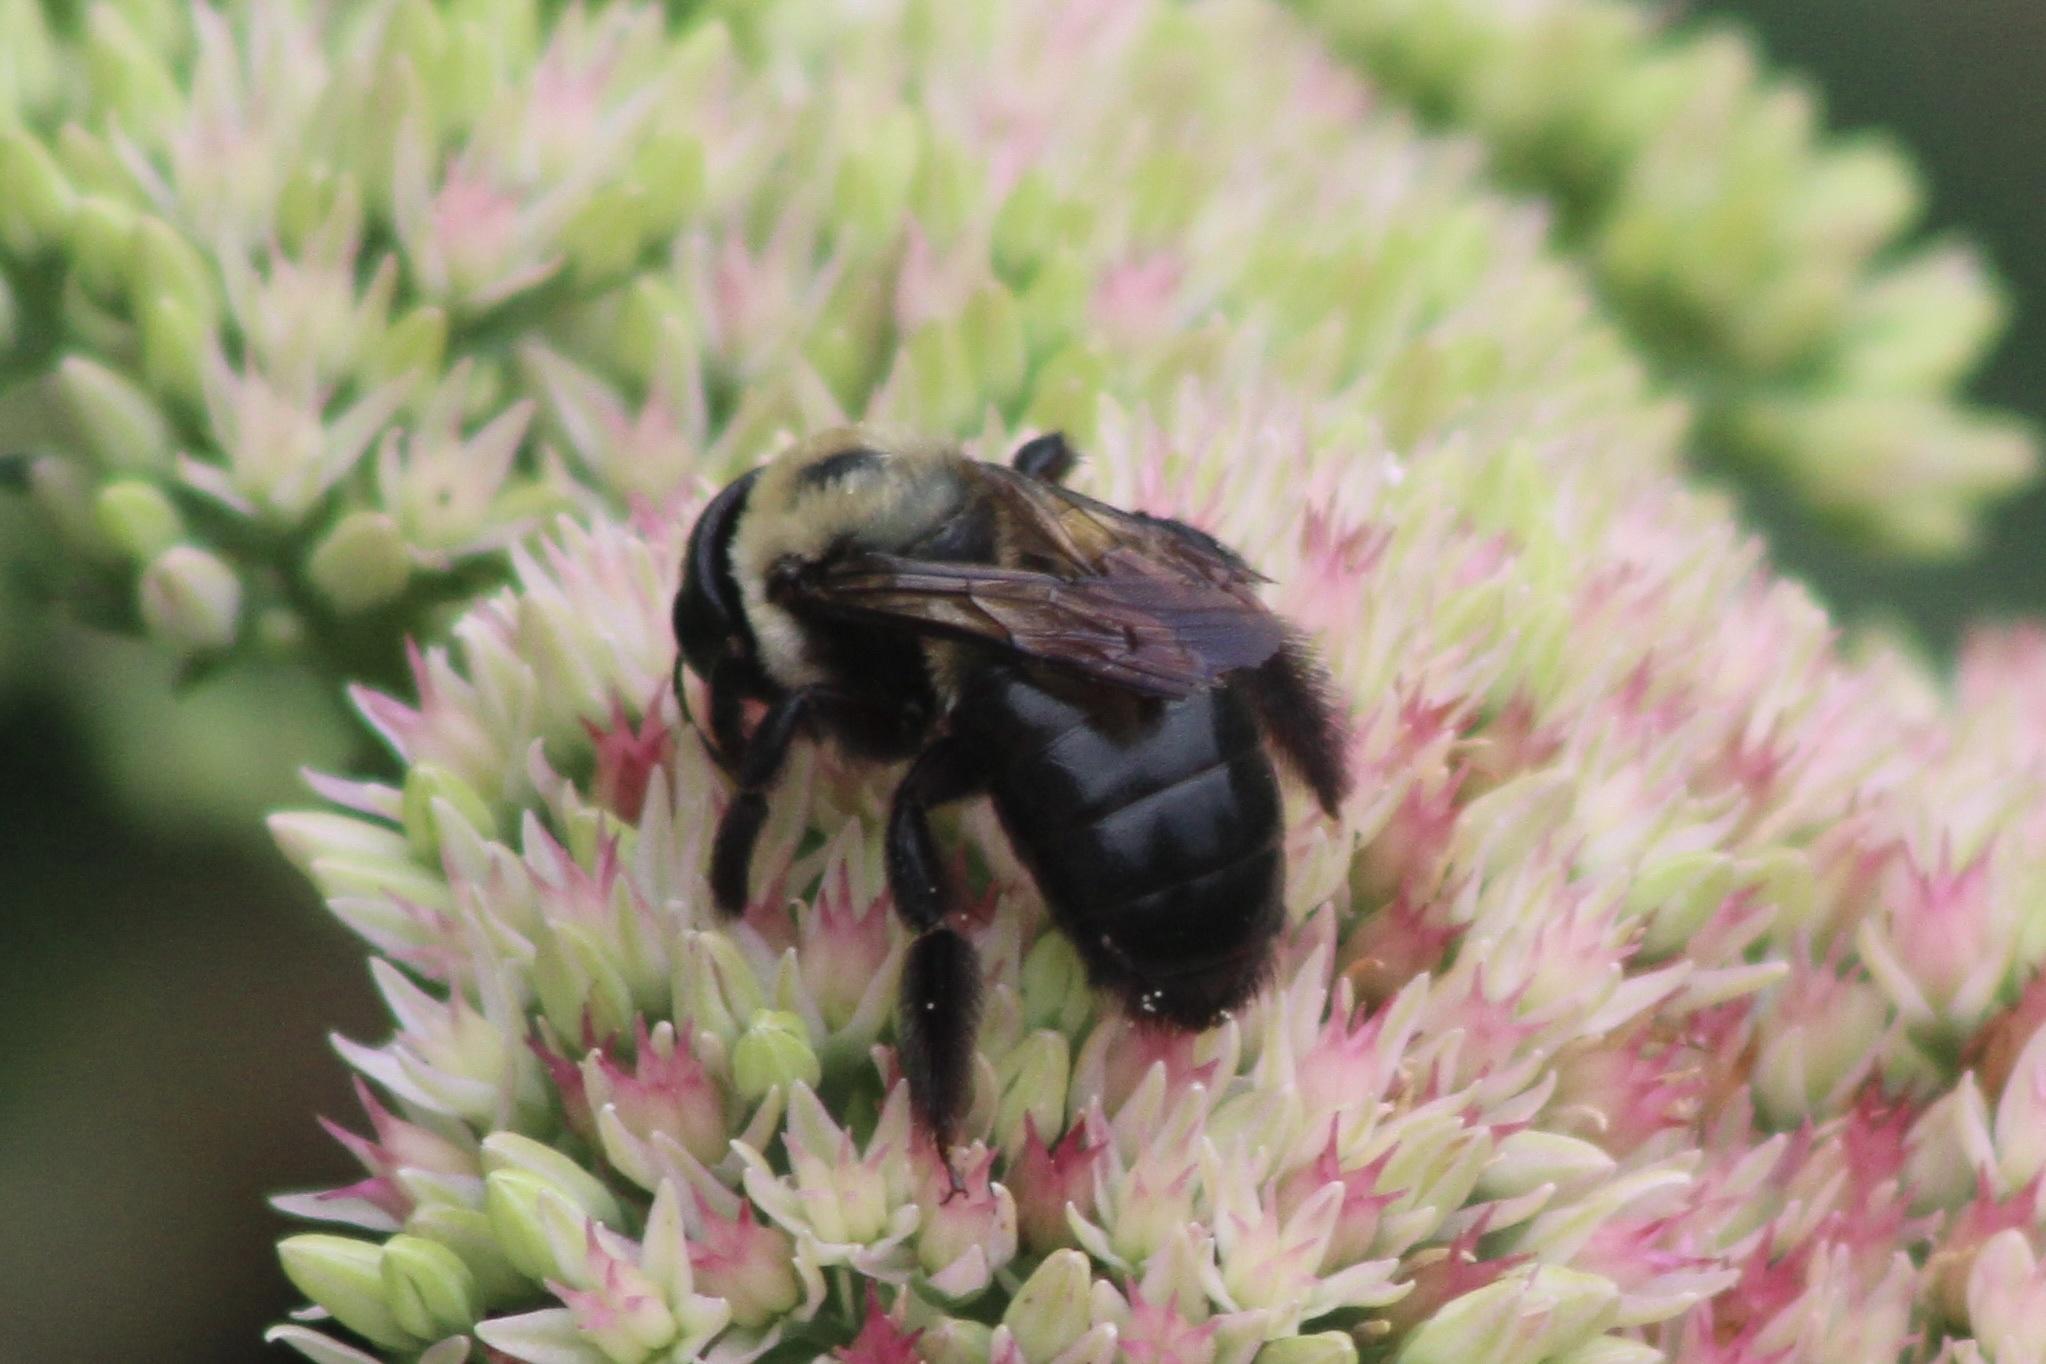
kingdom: Animalia
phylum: Arthropoda
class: Insecta
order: Hymenoptera
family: Apidae
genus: Xylocopa
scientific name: Xylocopa virginica
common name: Carpenter bee
